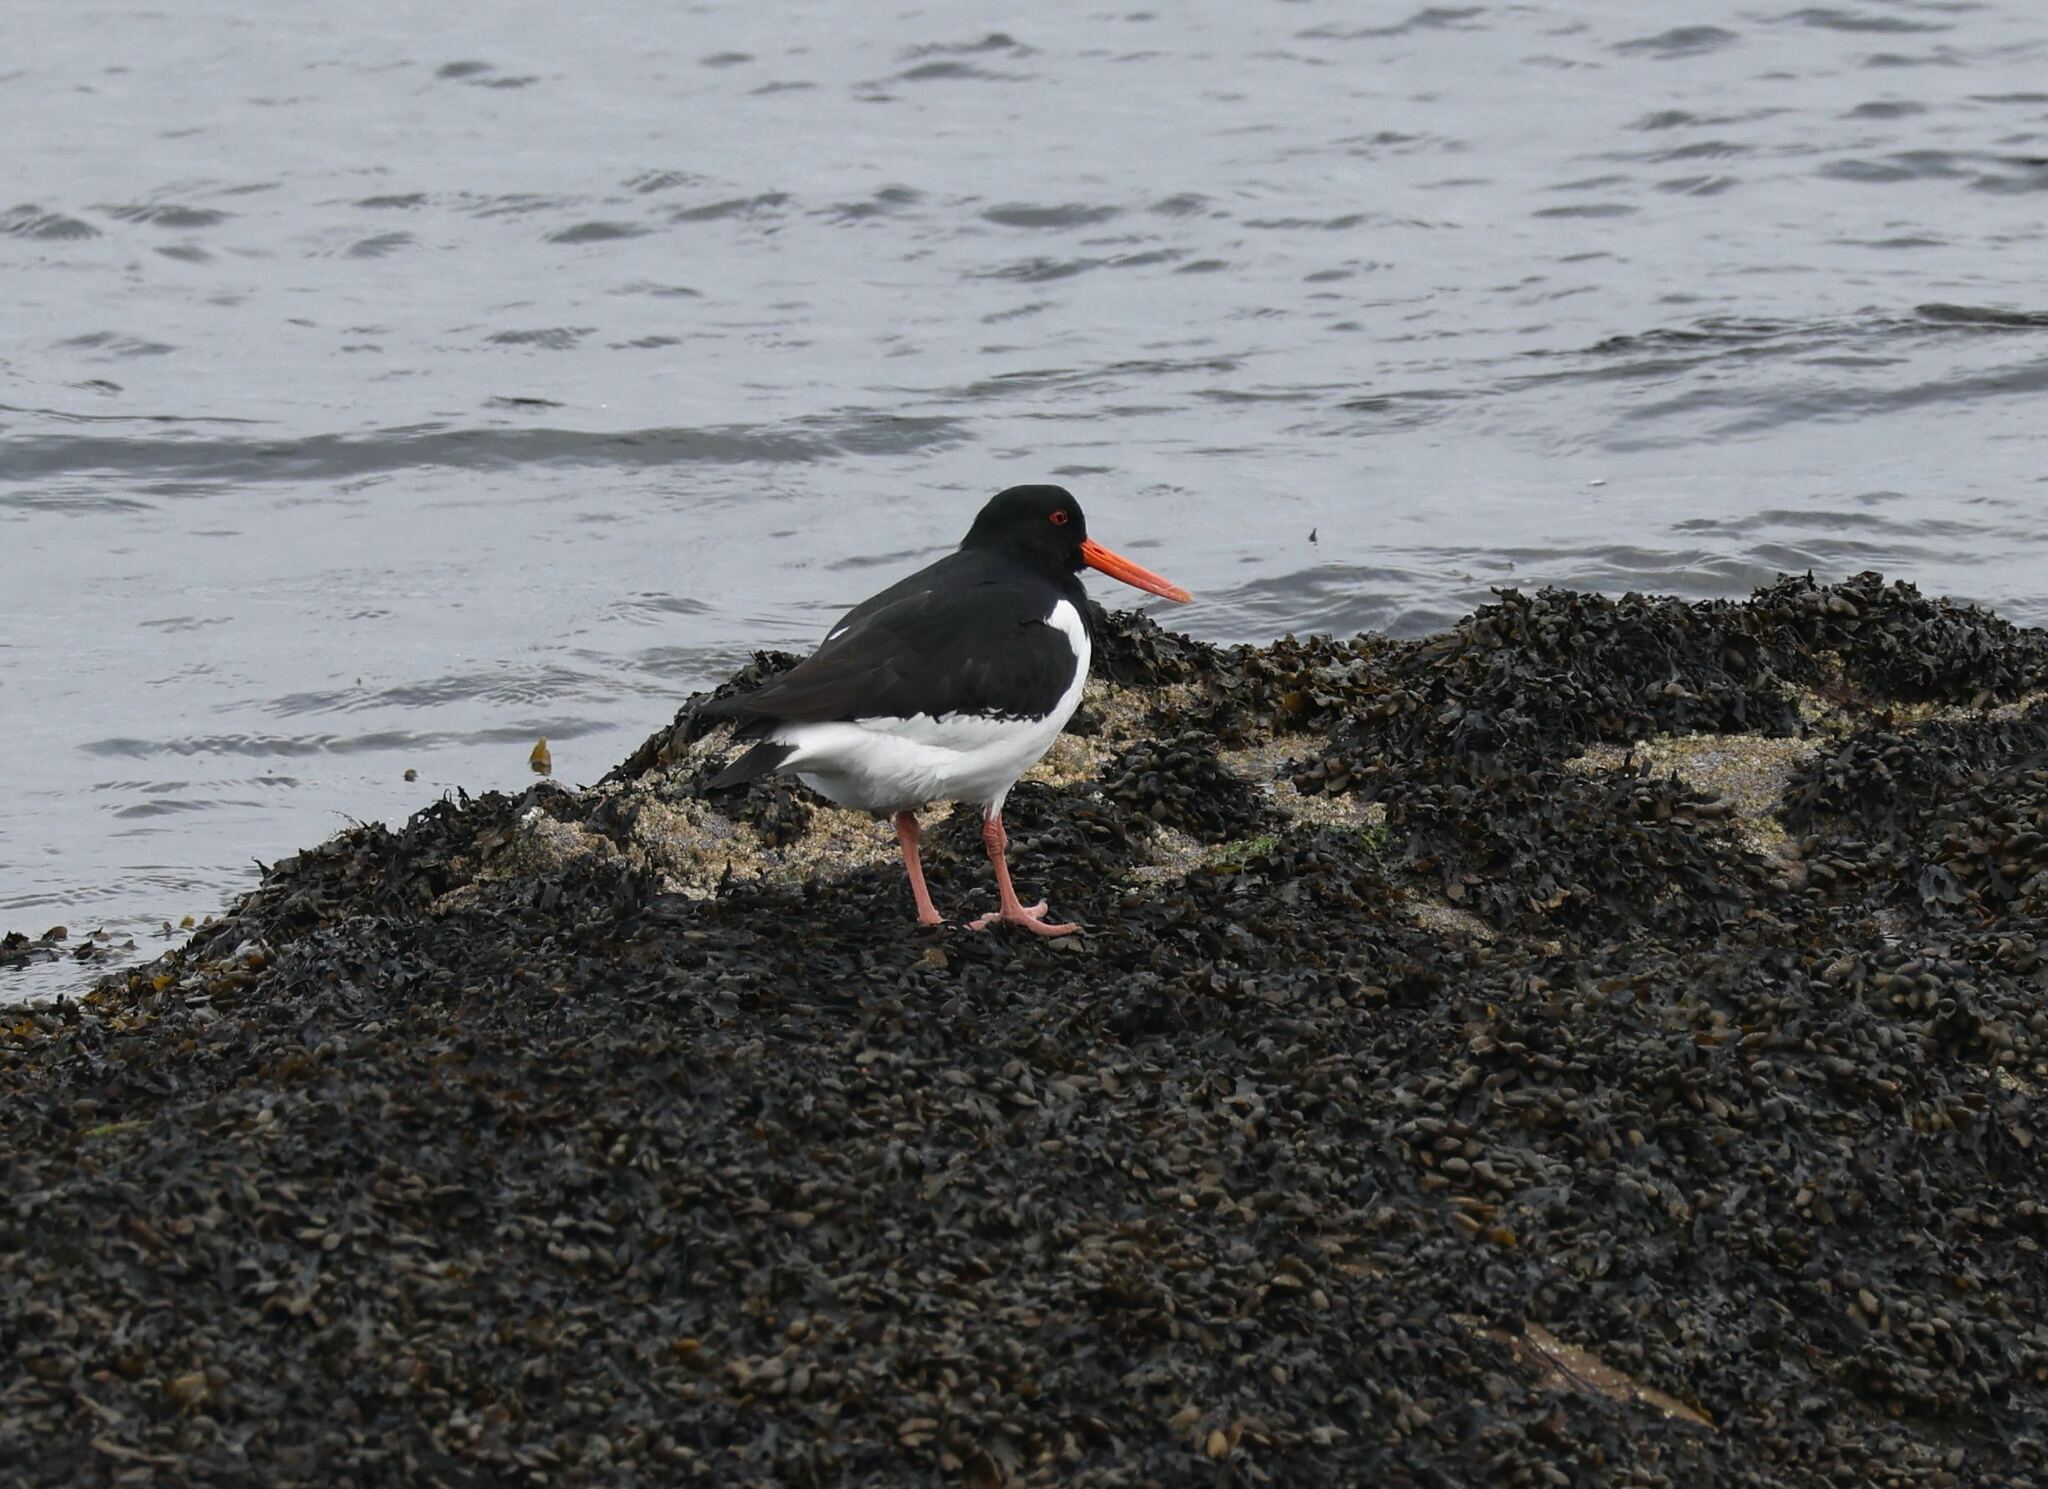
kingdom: Animalia
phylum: Chordata
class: Aves
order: Charadriiformes
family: Haematopodidae
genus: Haematopus
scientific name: Haematopus ostralegus
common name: Eurasian oystercatcher
